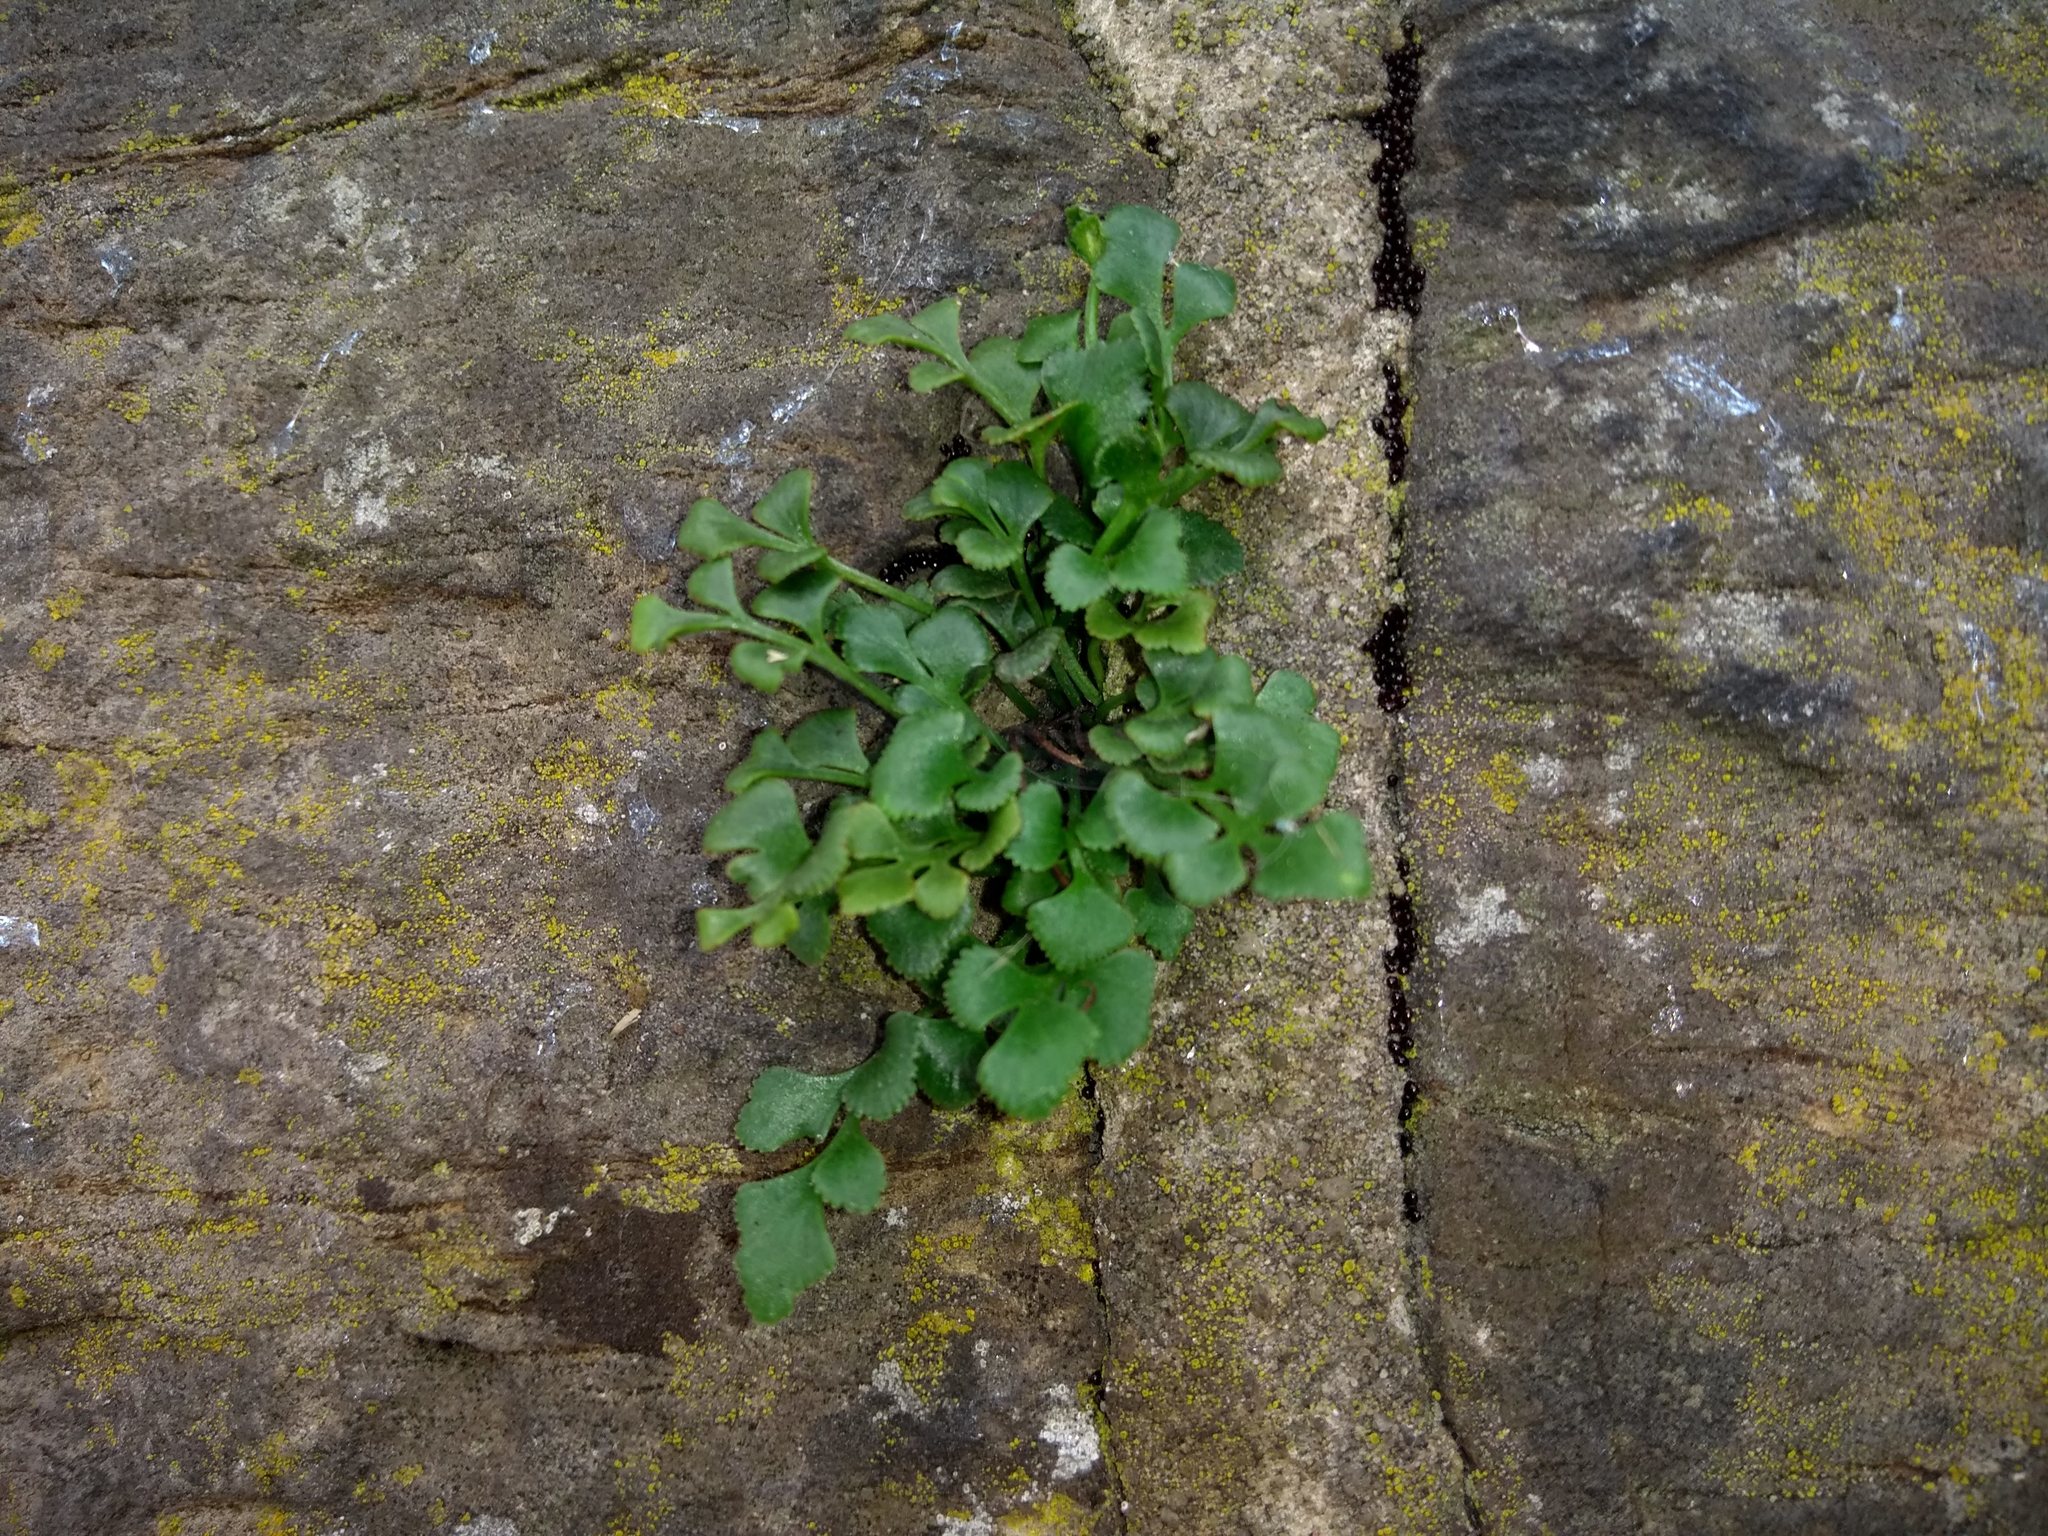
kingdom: Plantae
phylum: Tracheophyta
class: Polypodiopsida
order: Polypodiales
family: Aspleniaceae
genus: Asplenium
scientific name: Asplenium ruta-muraria
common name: Wall-rue
